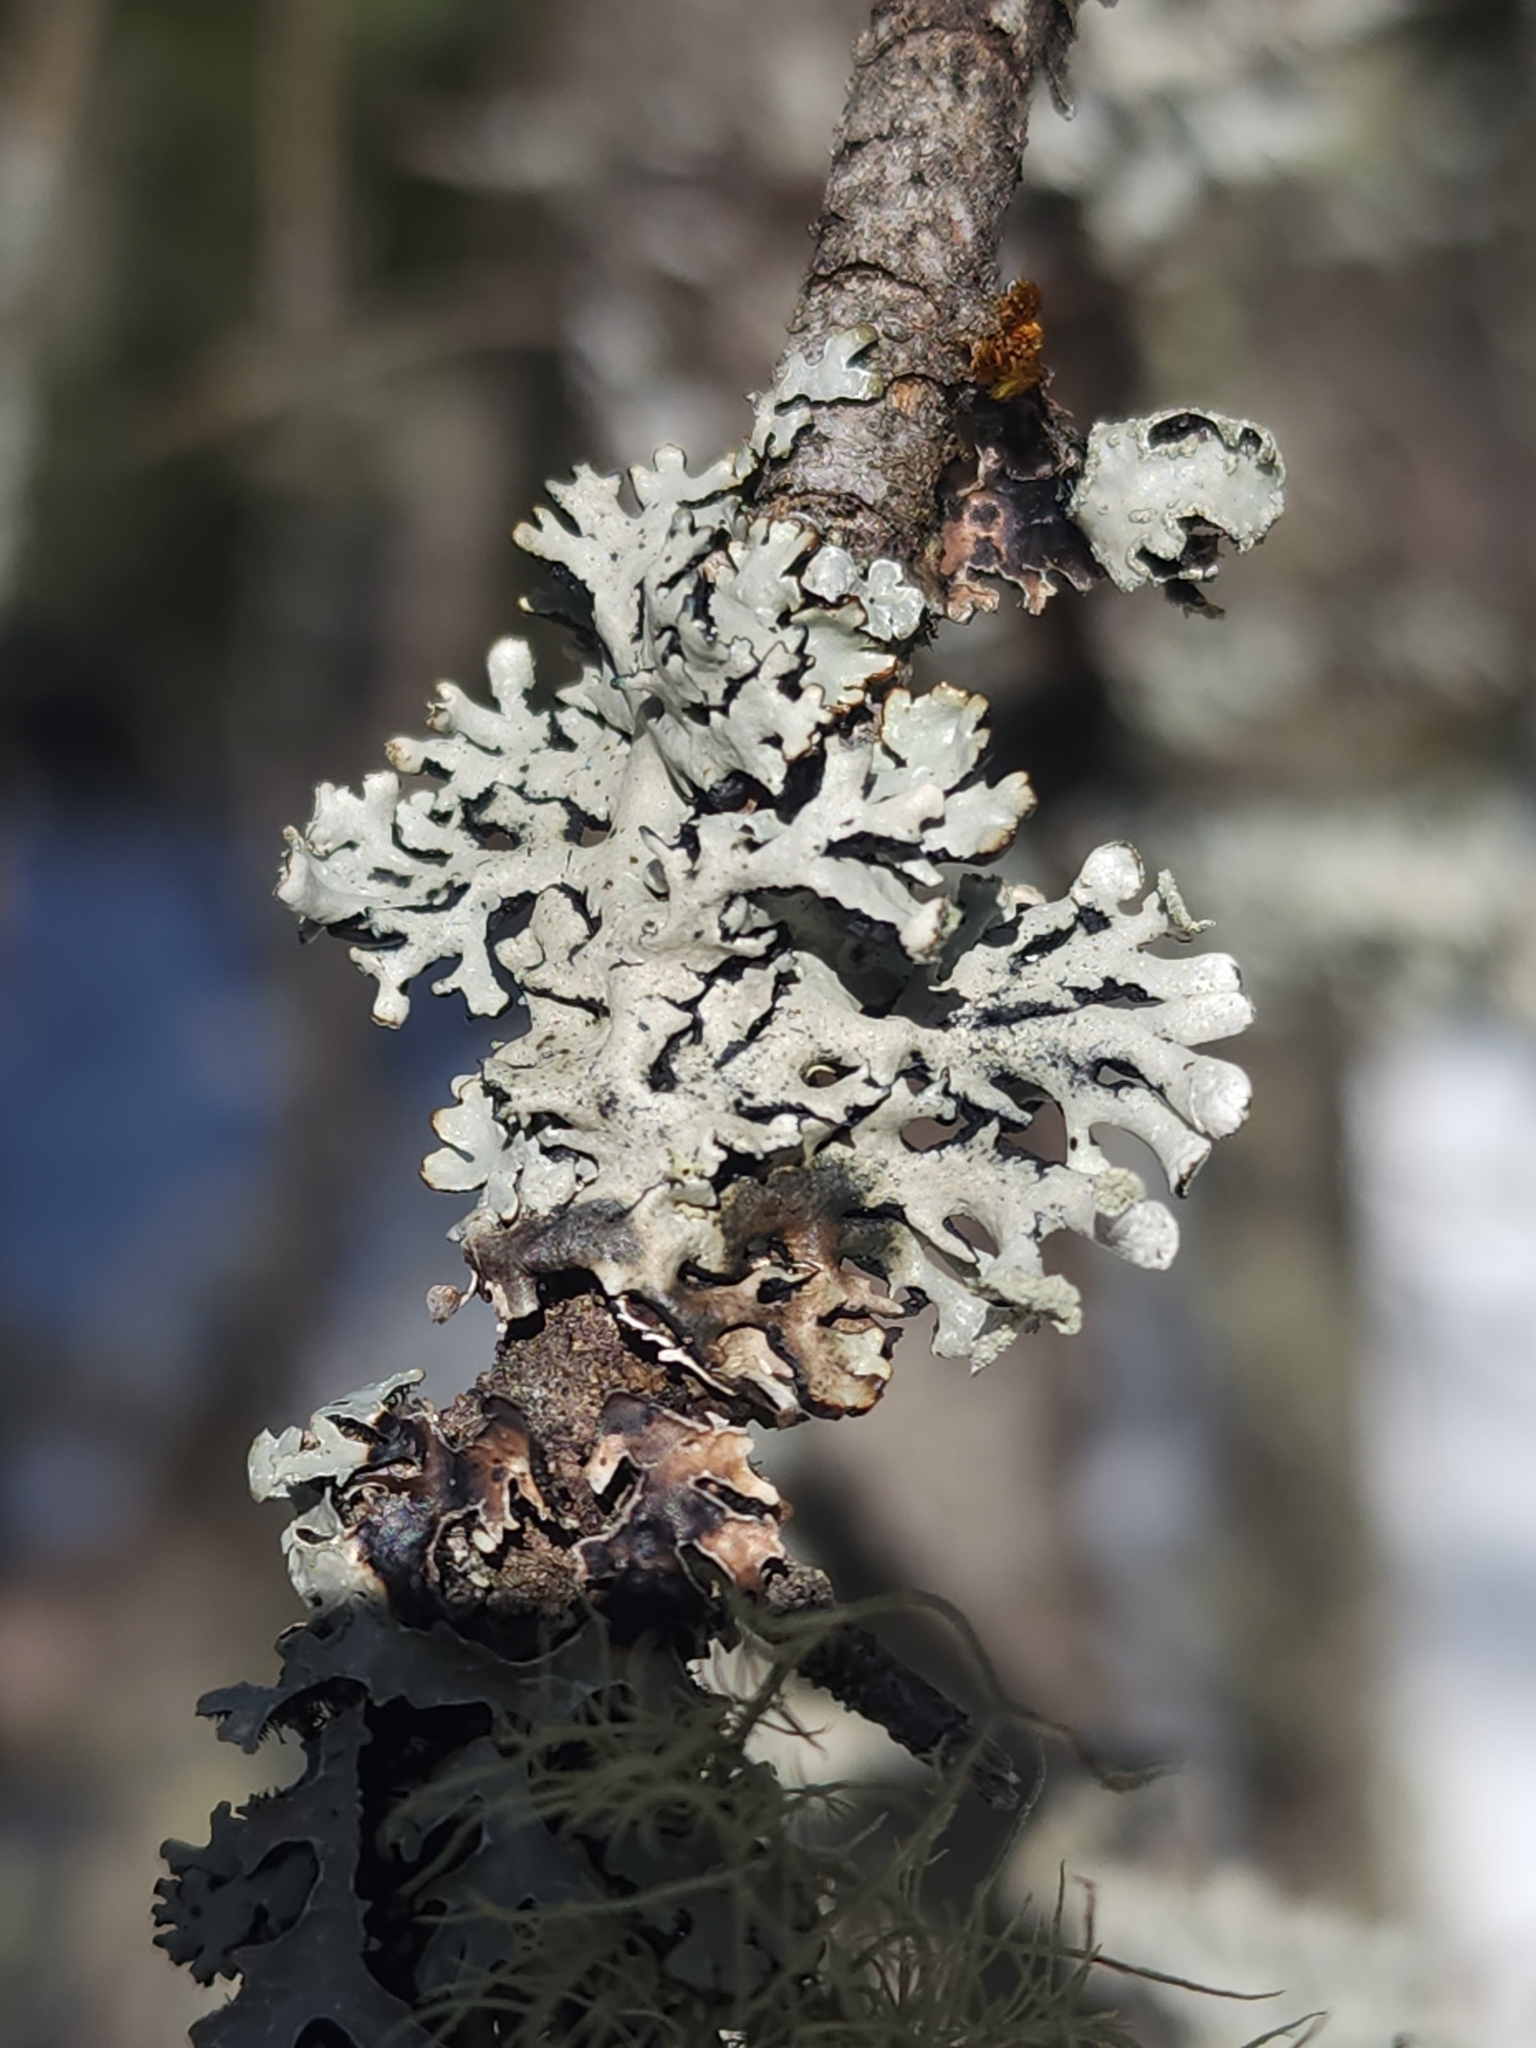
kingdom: Fungi
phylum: Ascomycota
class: Lecanoromycetes
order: Lecanorales
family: Parmeliaceae
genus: Hypogymnia
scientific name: Hypogymnia physodes
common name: Dark crottle
